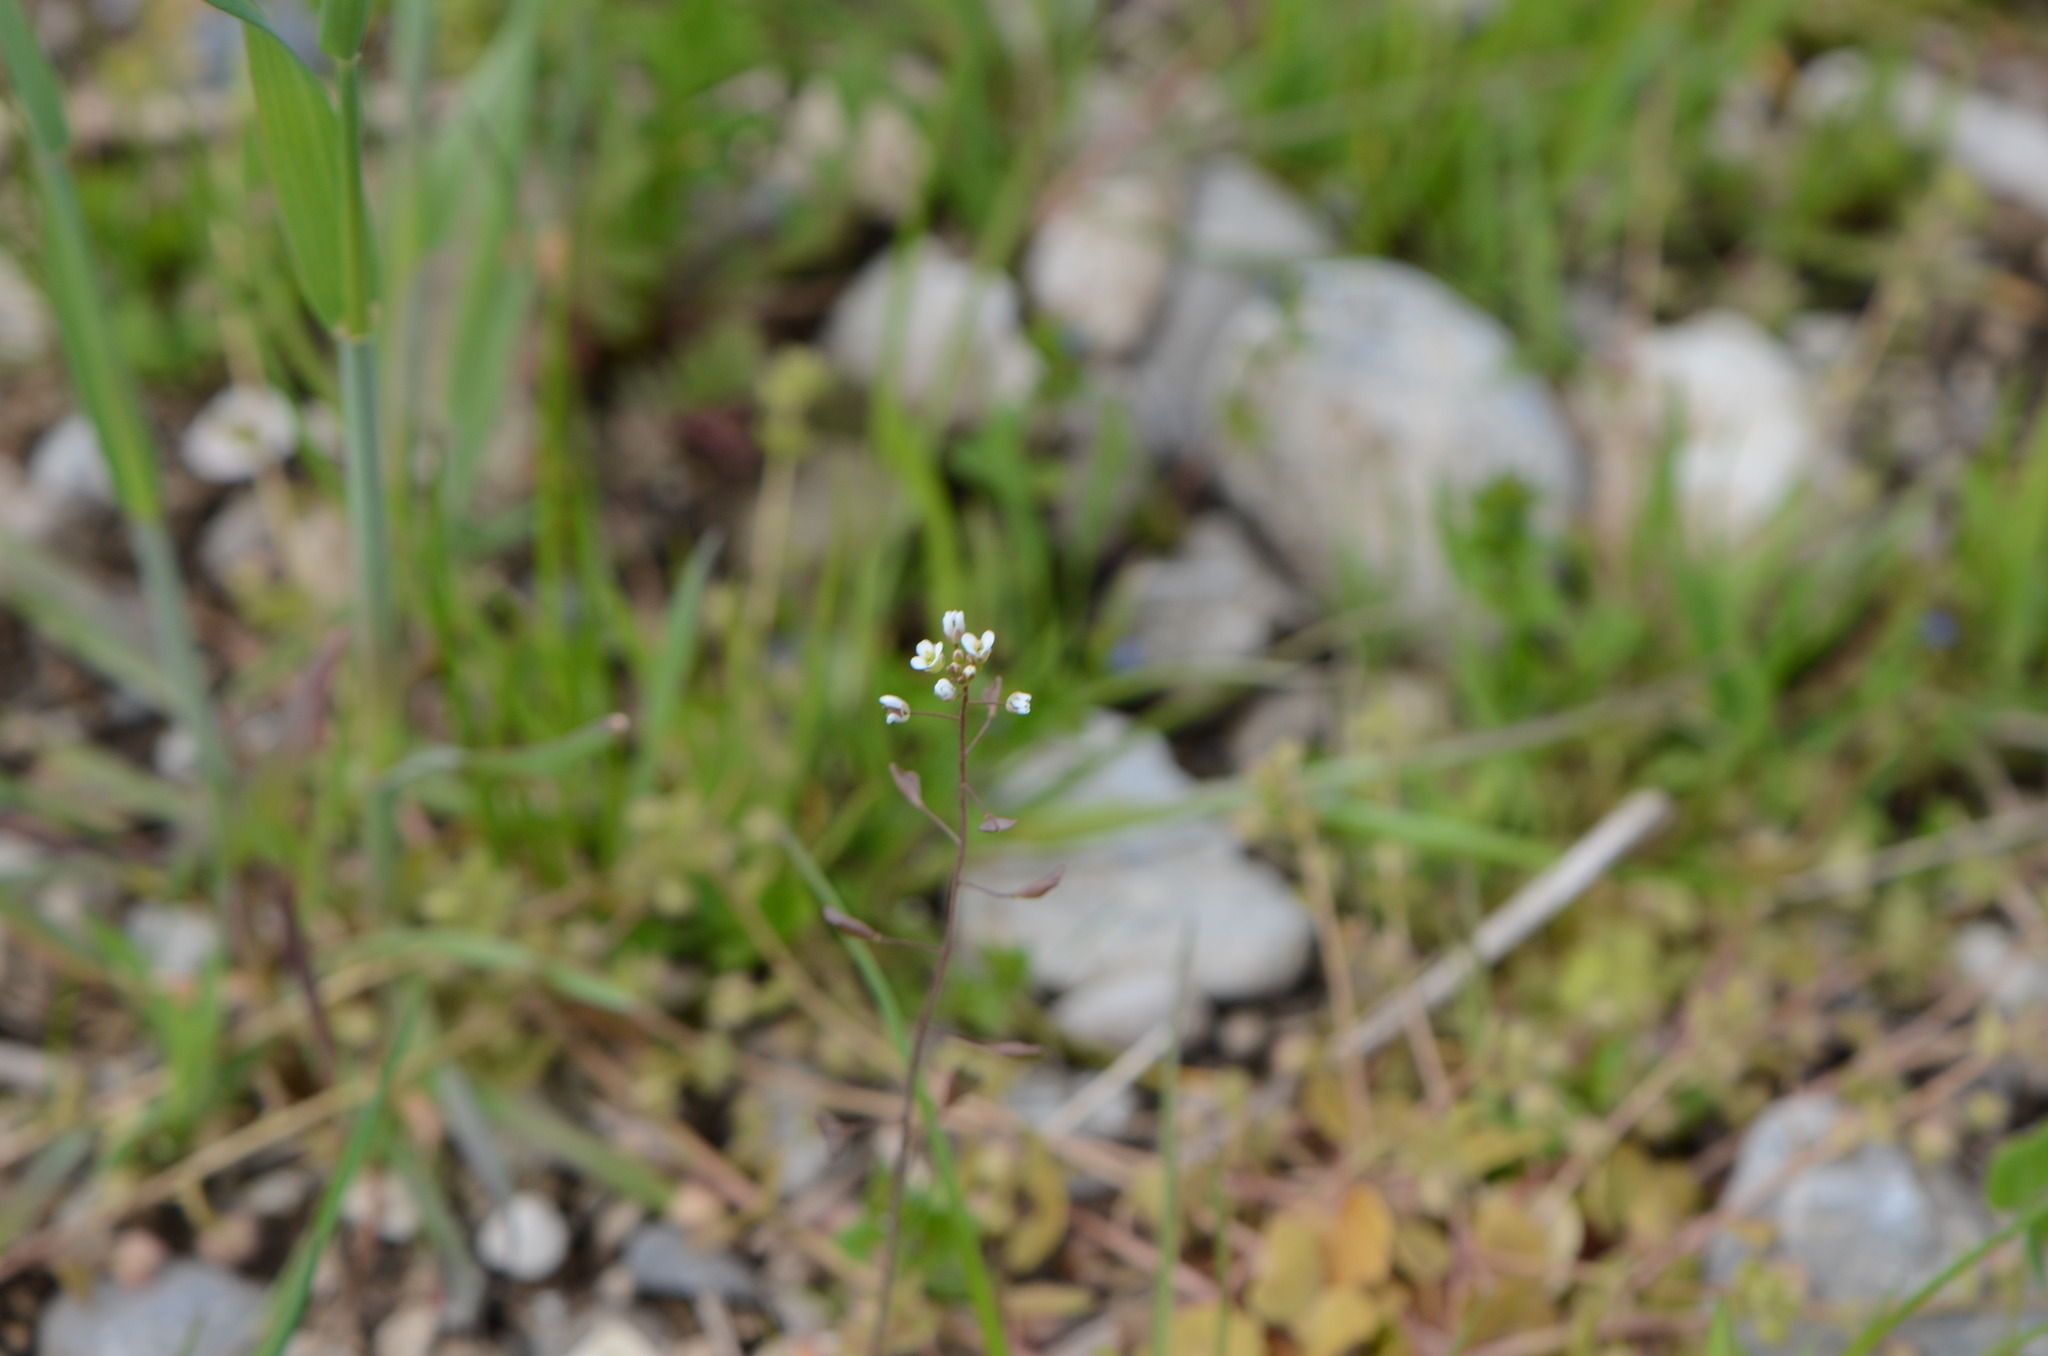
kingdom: Plantae
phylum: Tracheophyta
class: Magnoliopsida
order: Brassicales
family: Brassicaceae
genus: Capsella
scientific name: Capsella bursa-pastoris
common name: Shepherd's purse
